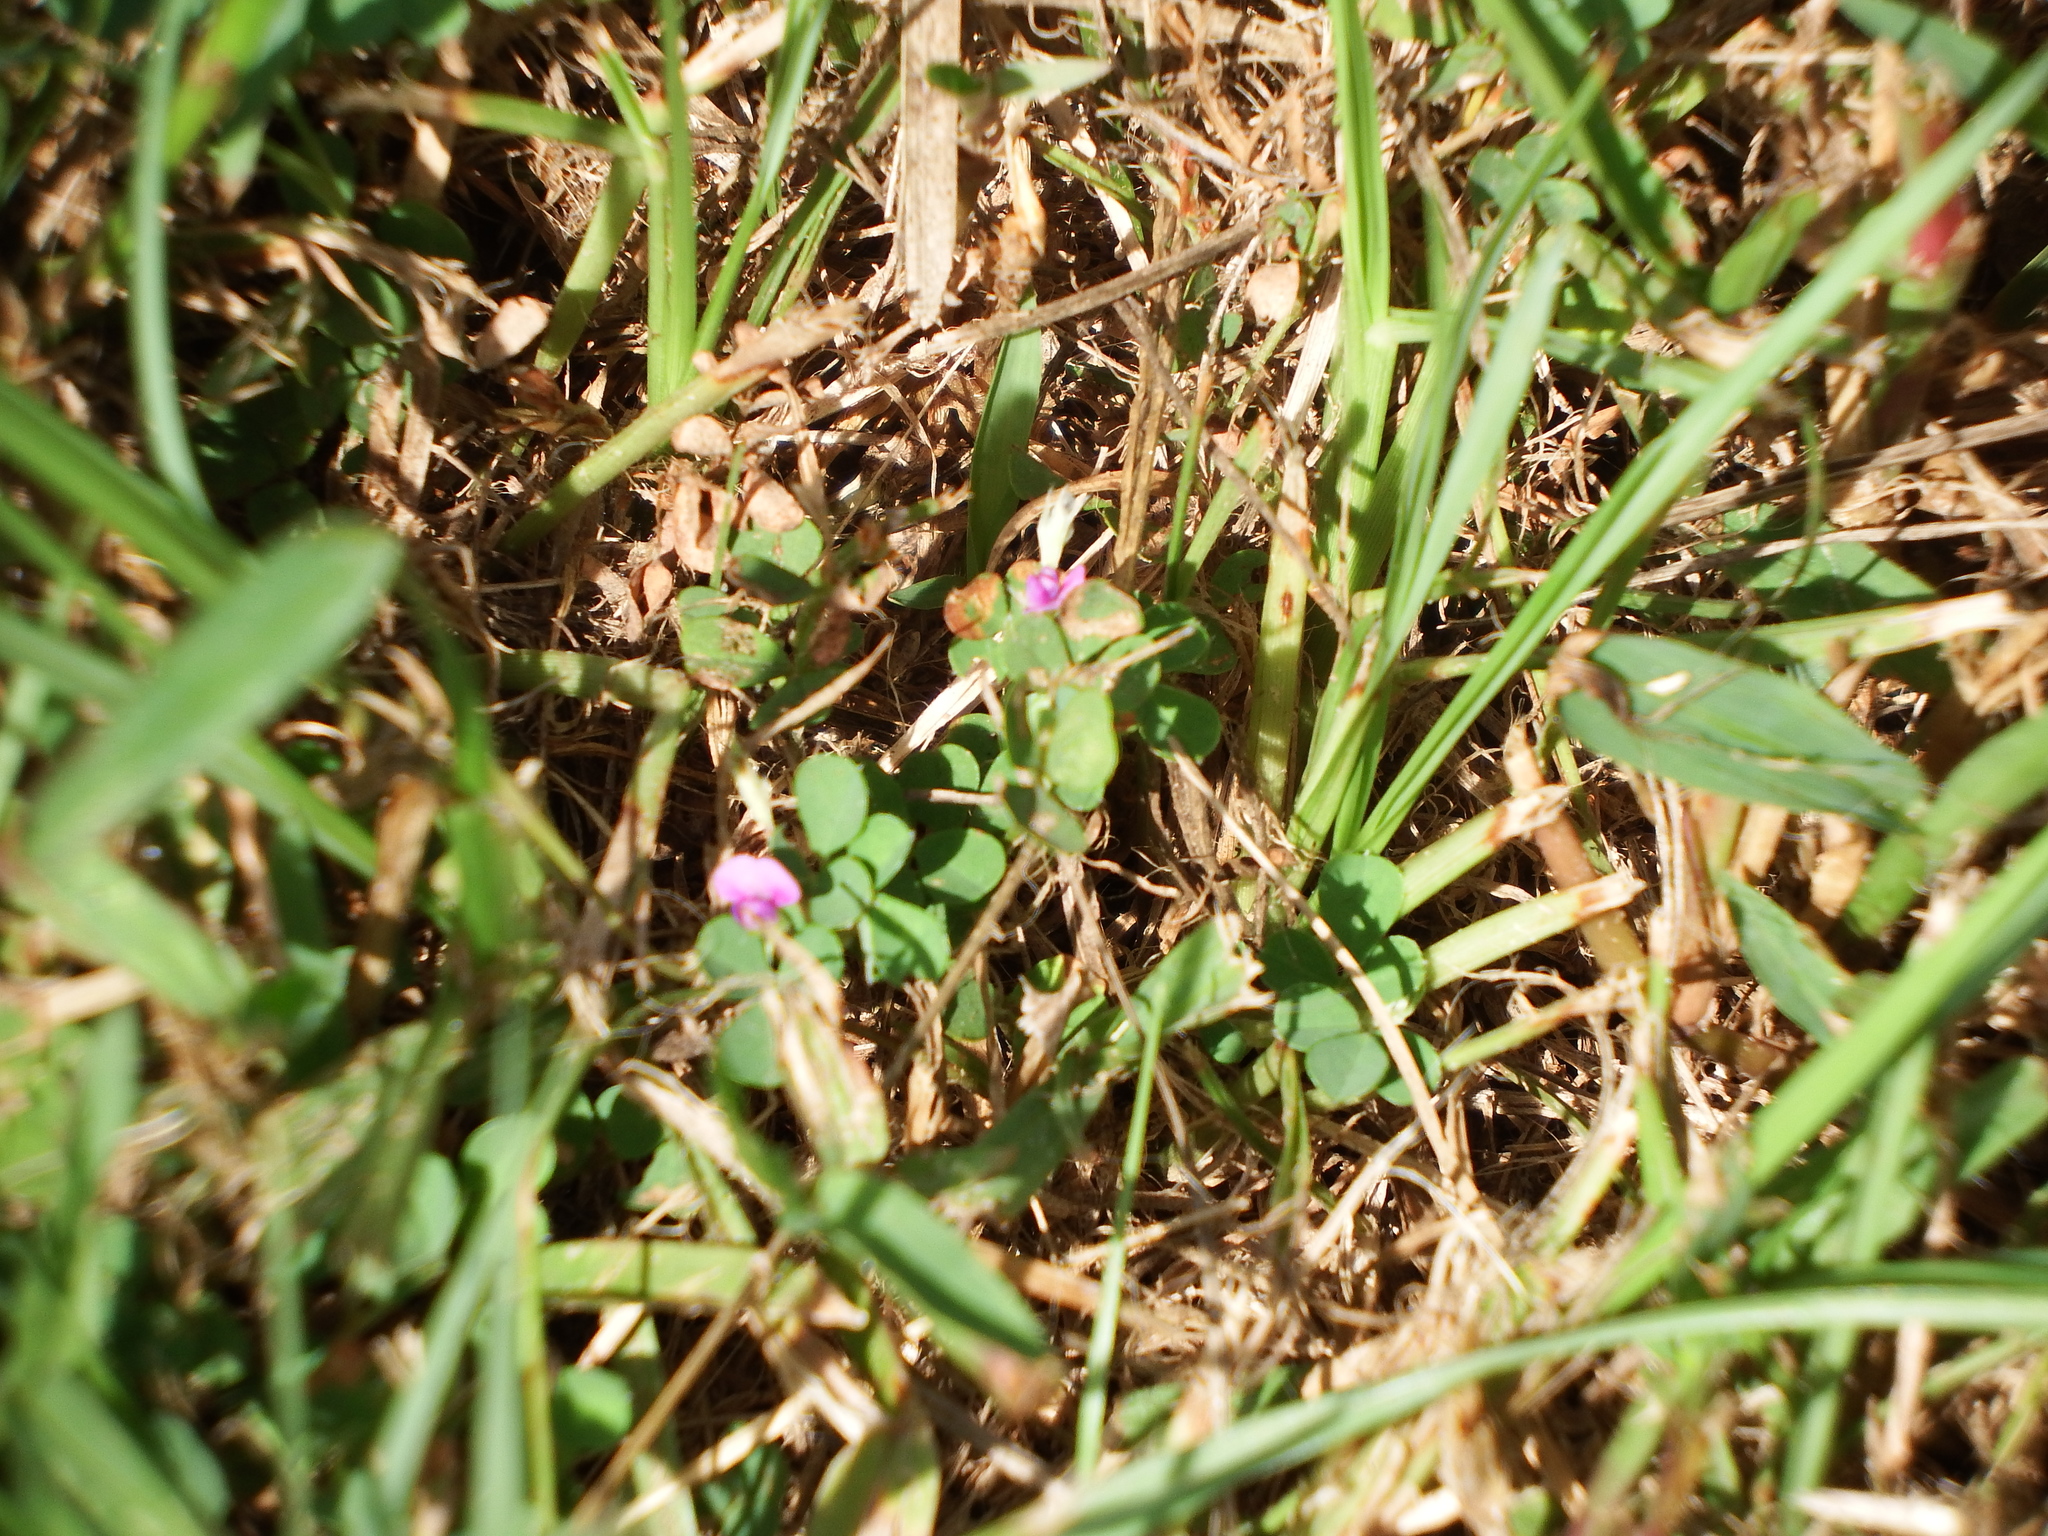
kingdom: Plantae
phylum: Tracheophyta
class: Magnoliopsida
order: Fabales
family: Fabaceae
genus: Grona
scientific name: Grona triflora
